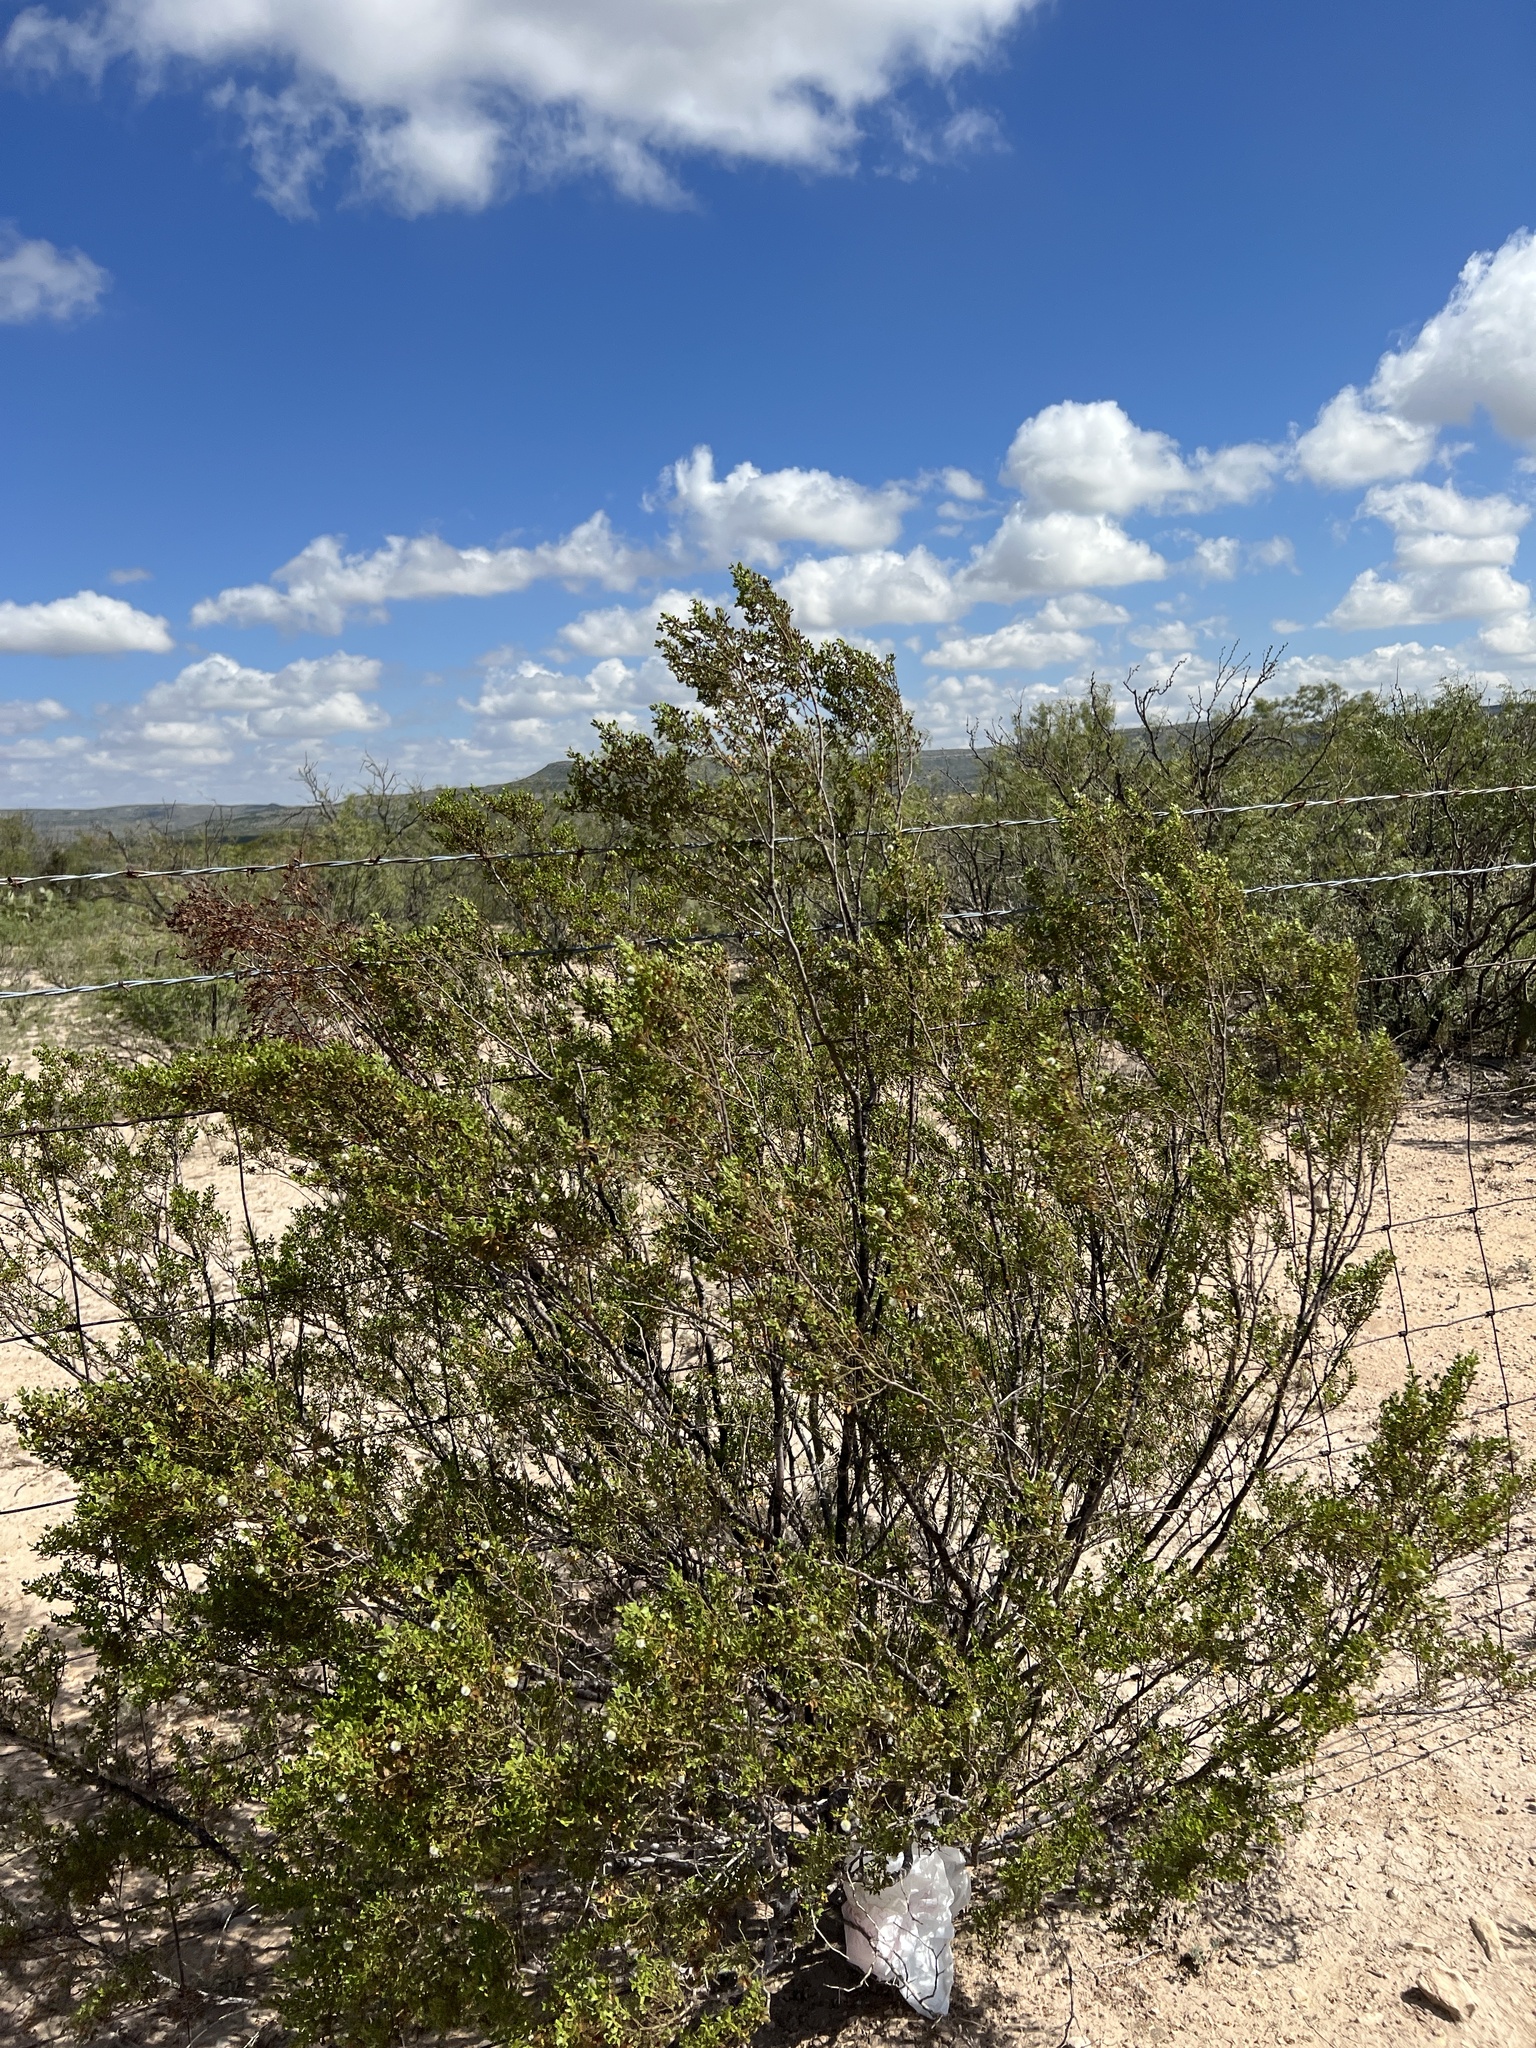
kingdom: Plantae
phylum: Tracheophyta
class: Magnoliopsida
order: Zygophyllales
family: Zygophyllaceae
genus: Larrea
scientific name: Larrea tridentata
